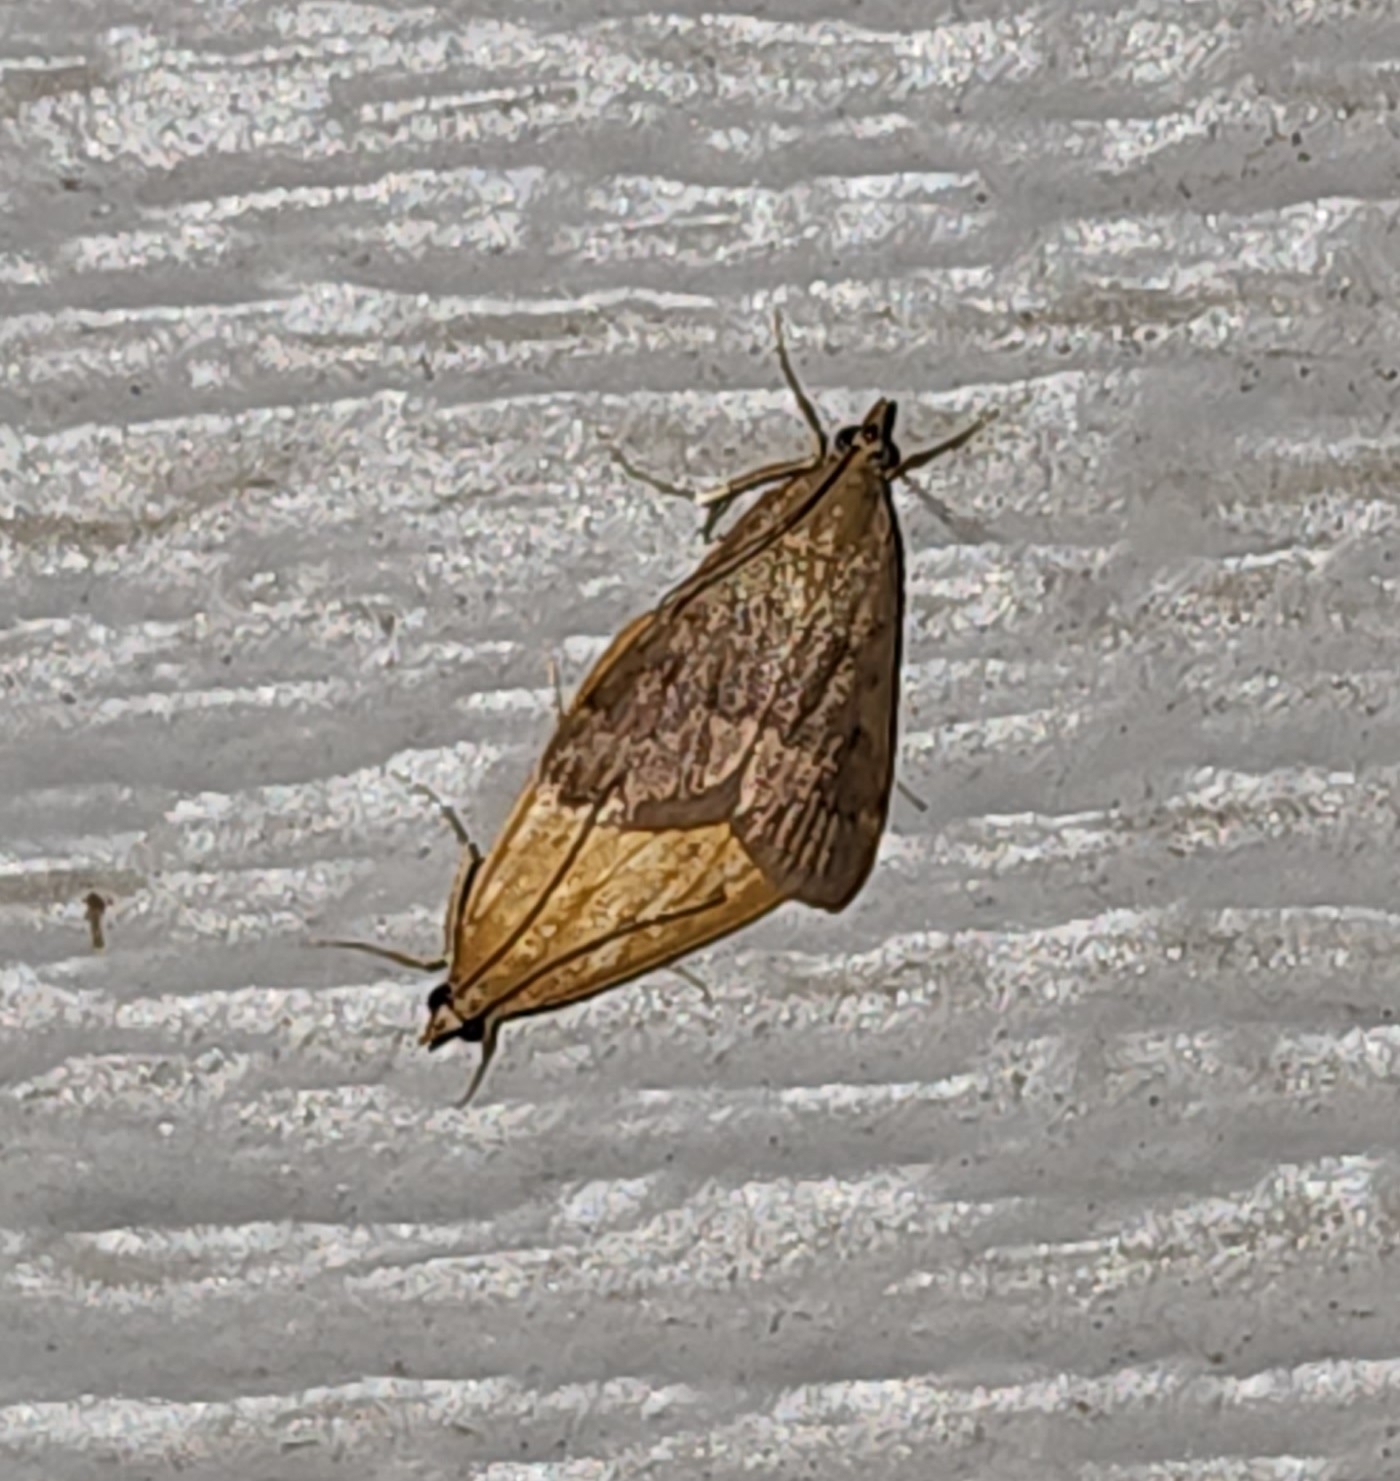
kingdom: Animalia
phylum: Arthropoda
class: Insecta
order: Lepidoptera
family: Crambidae
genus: Achyra
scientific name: Achyra rantalis
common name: Garden webworm
